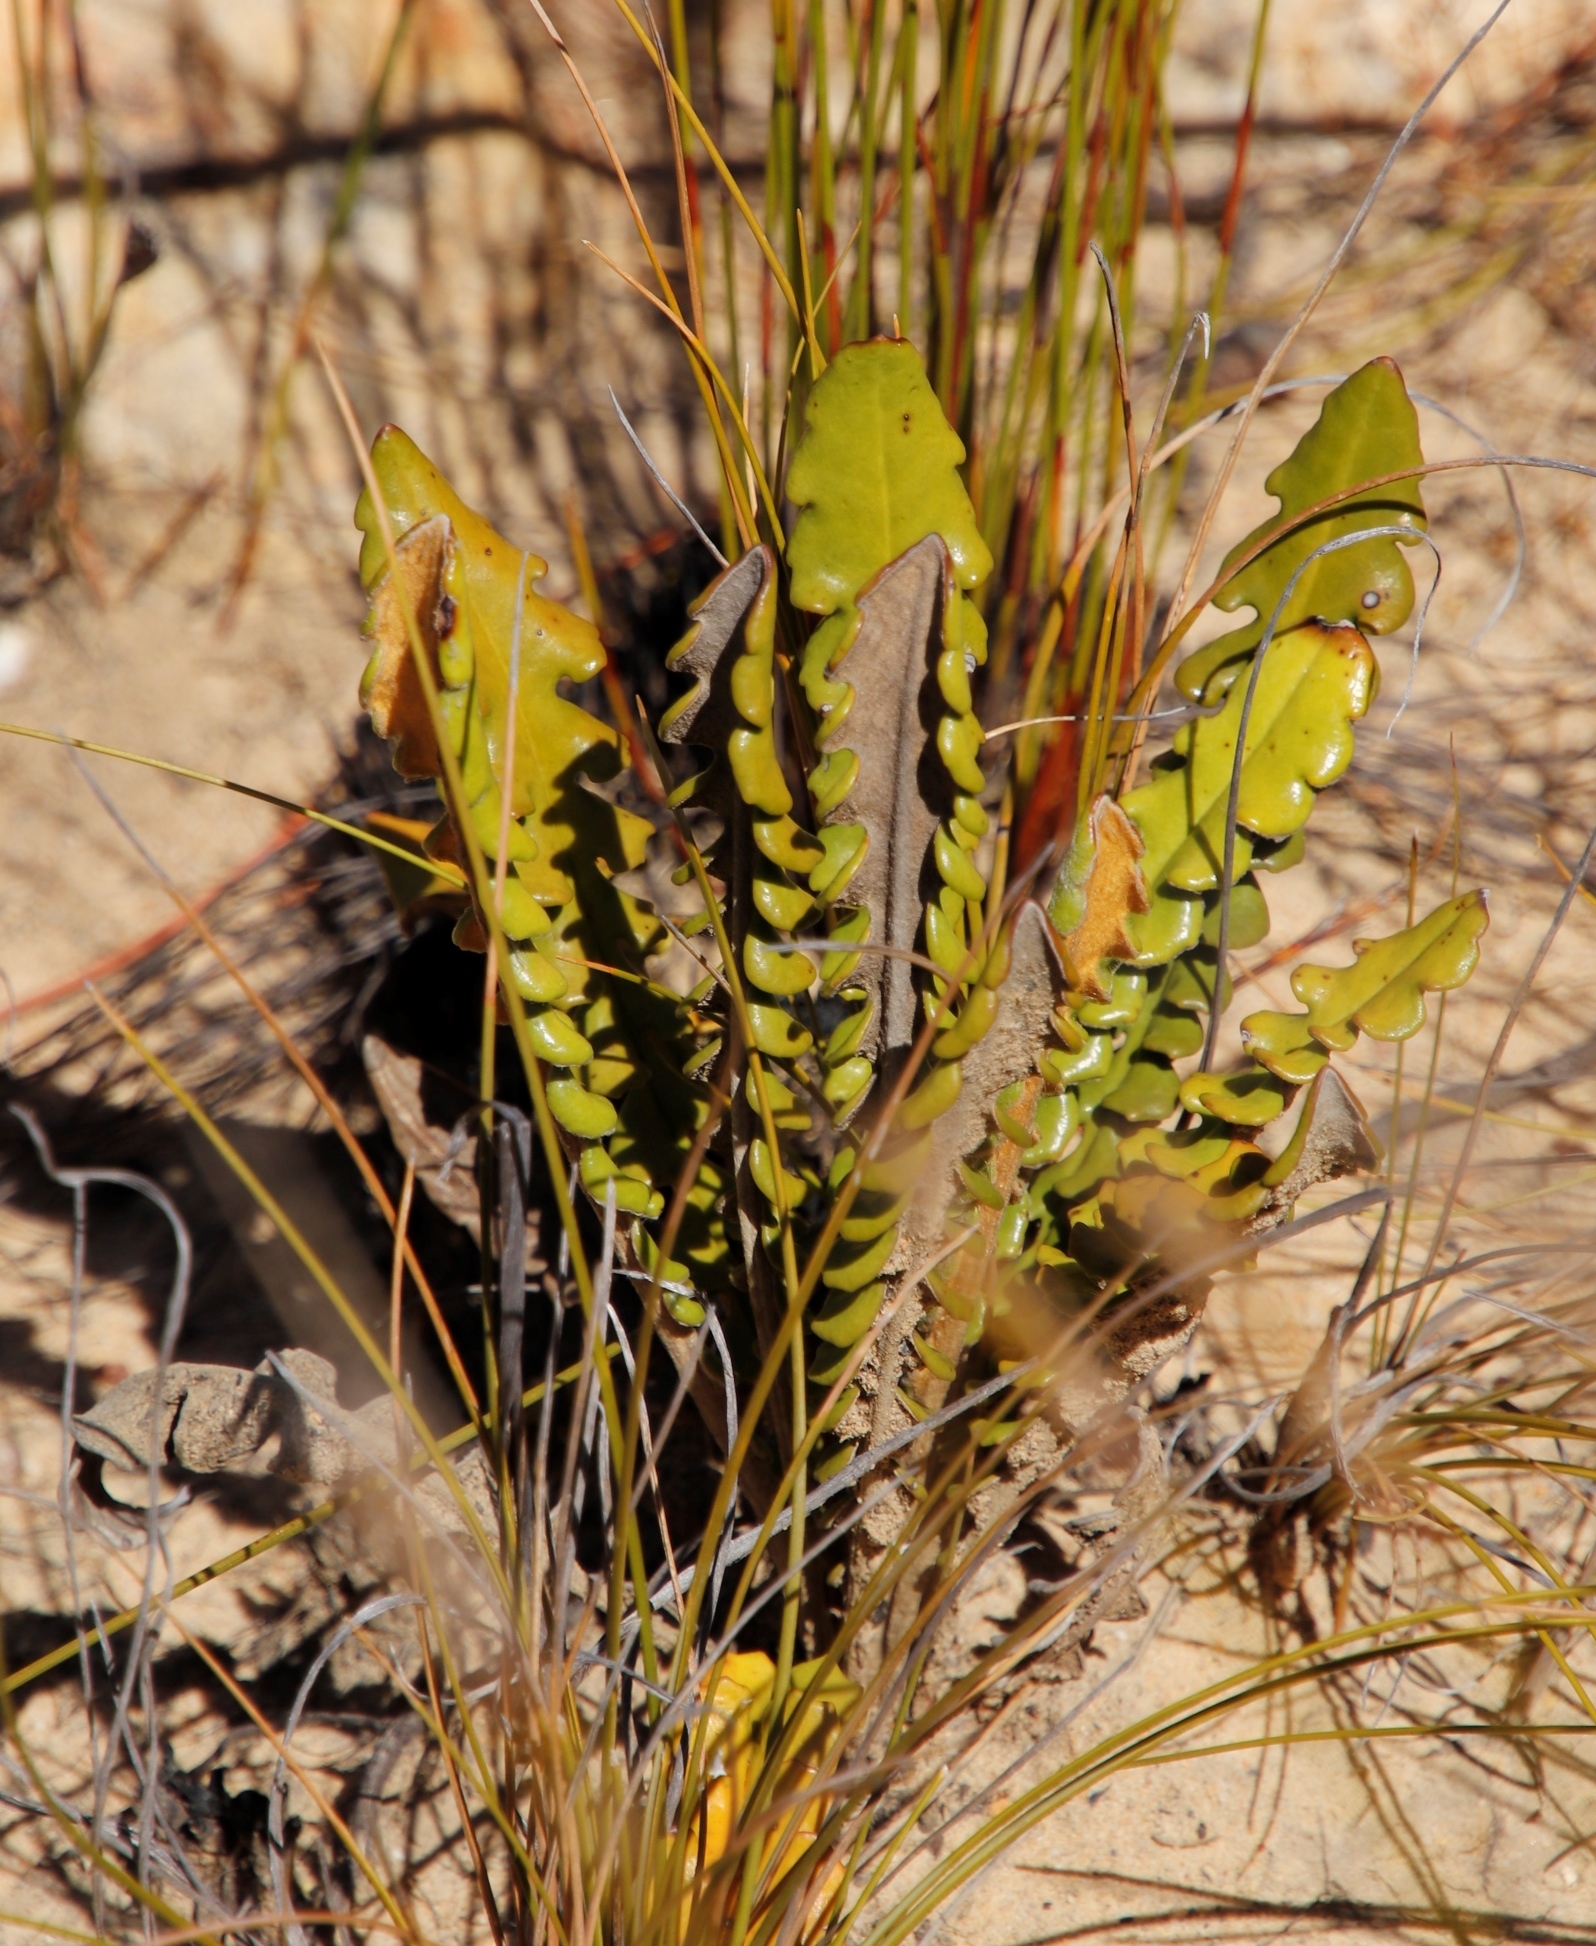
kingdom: Plantae
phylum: Tracheophyta
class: Magnoliopsida
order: Asterales
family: Asteraceae
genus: Gerbera
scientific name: Gerbera linnaei
